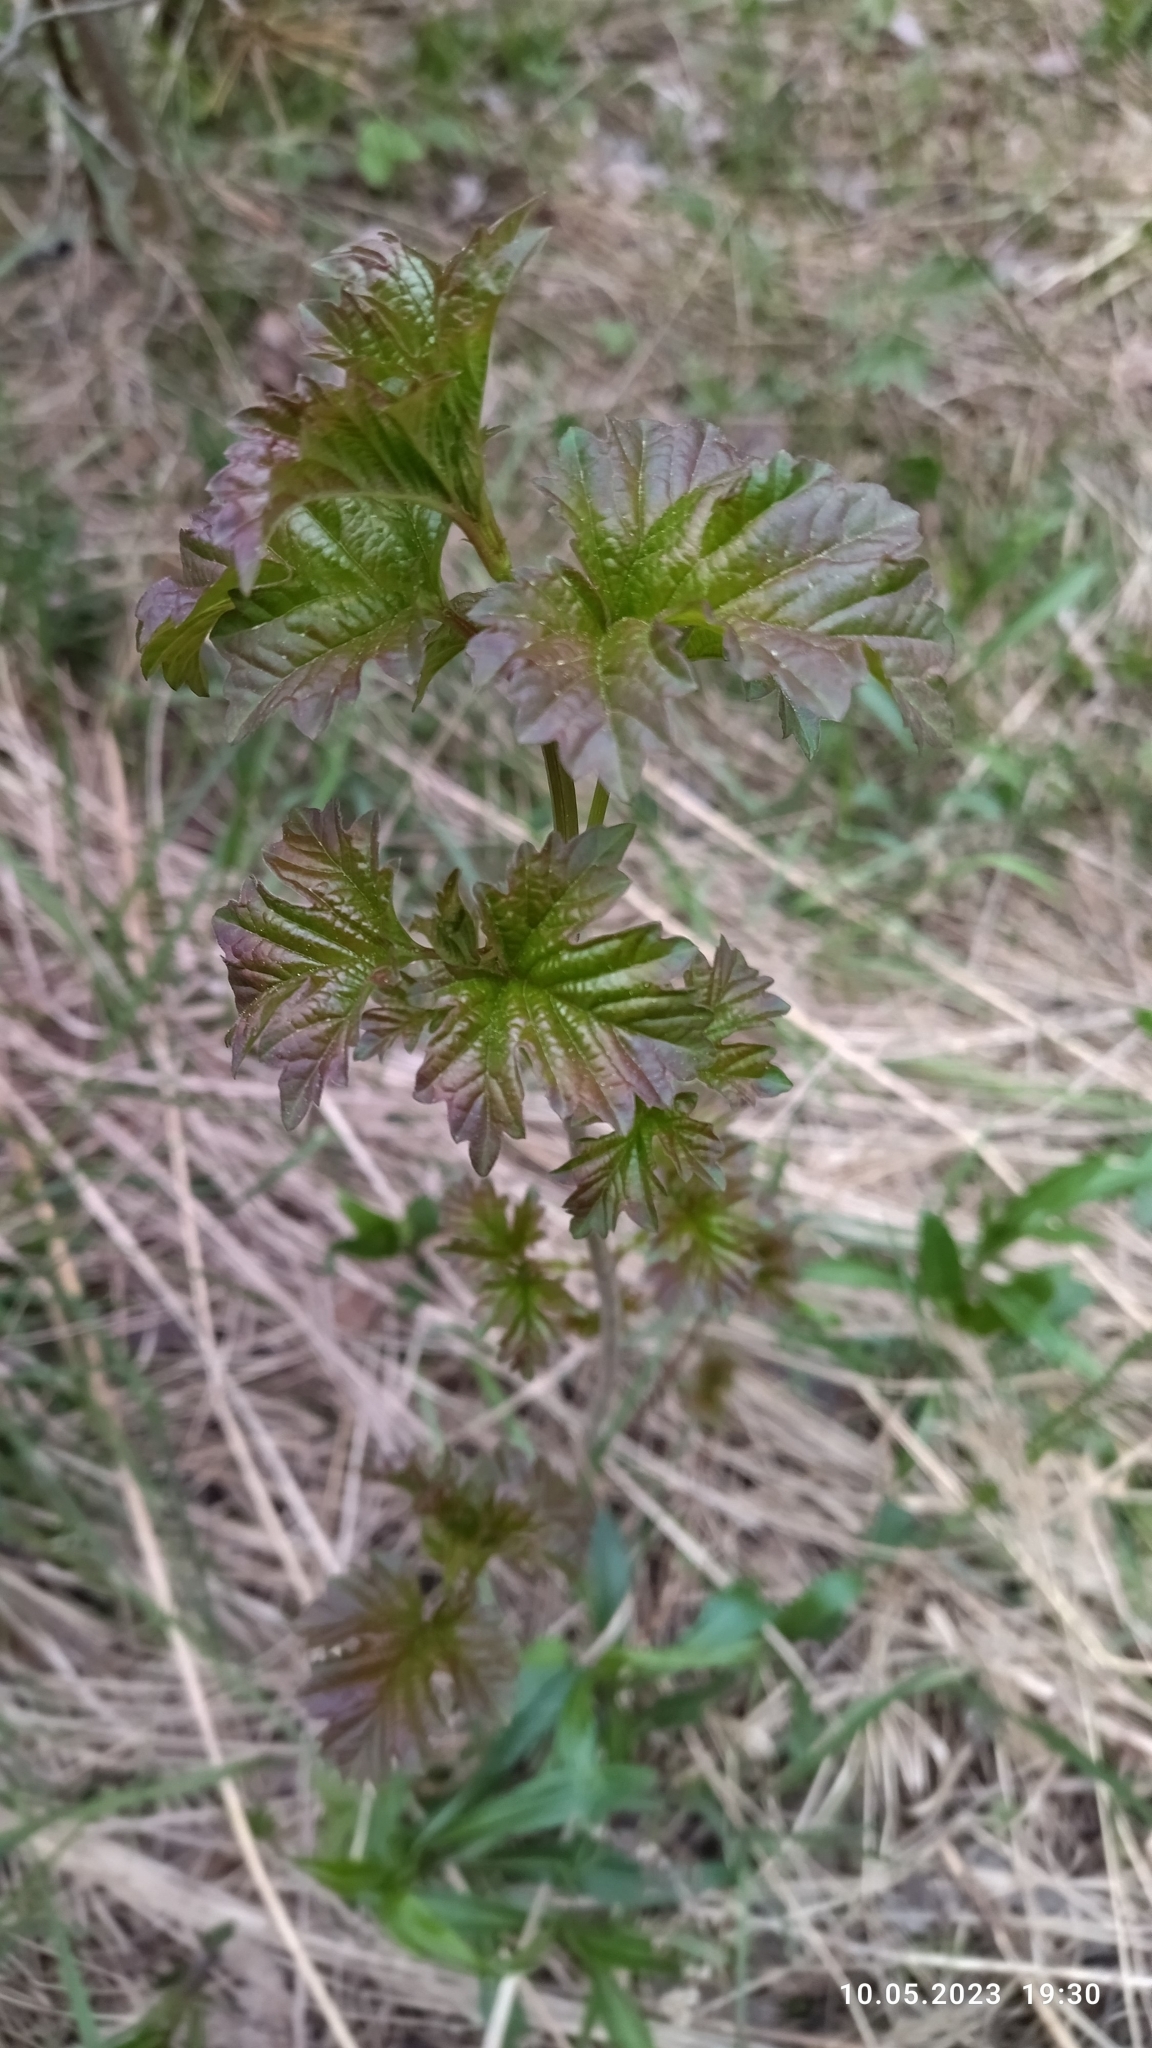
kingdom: Plantae
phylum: Tracheophyta
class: Magnoliopsida
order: Dipsacales
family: Viburnaceae
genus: Viburnum
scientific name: Viburnum opulus
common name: Guelder-rose
